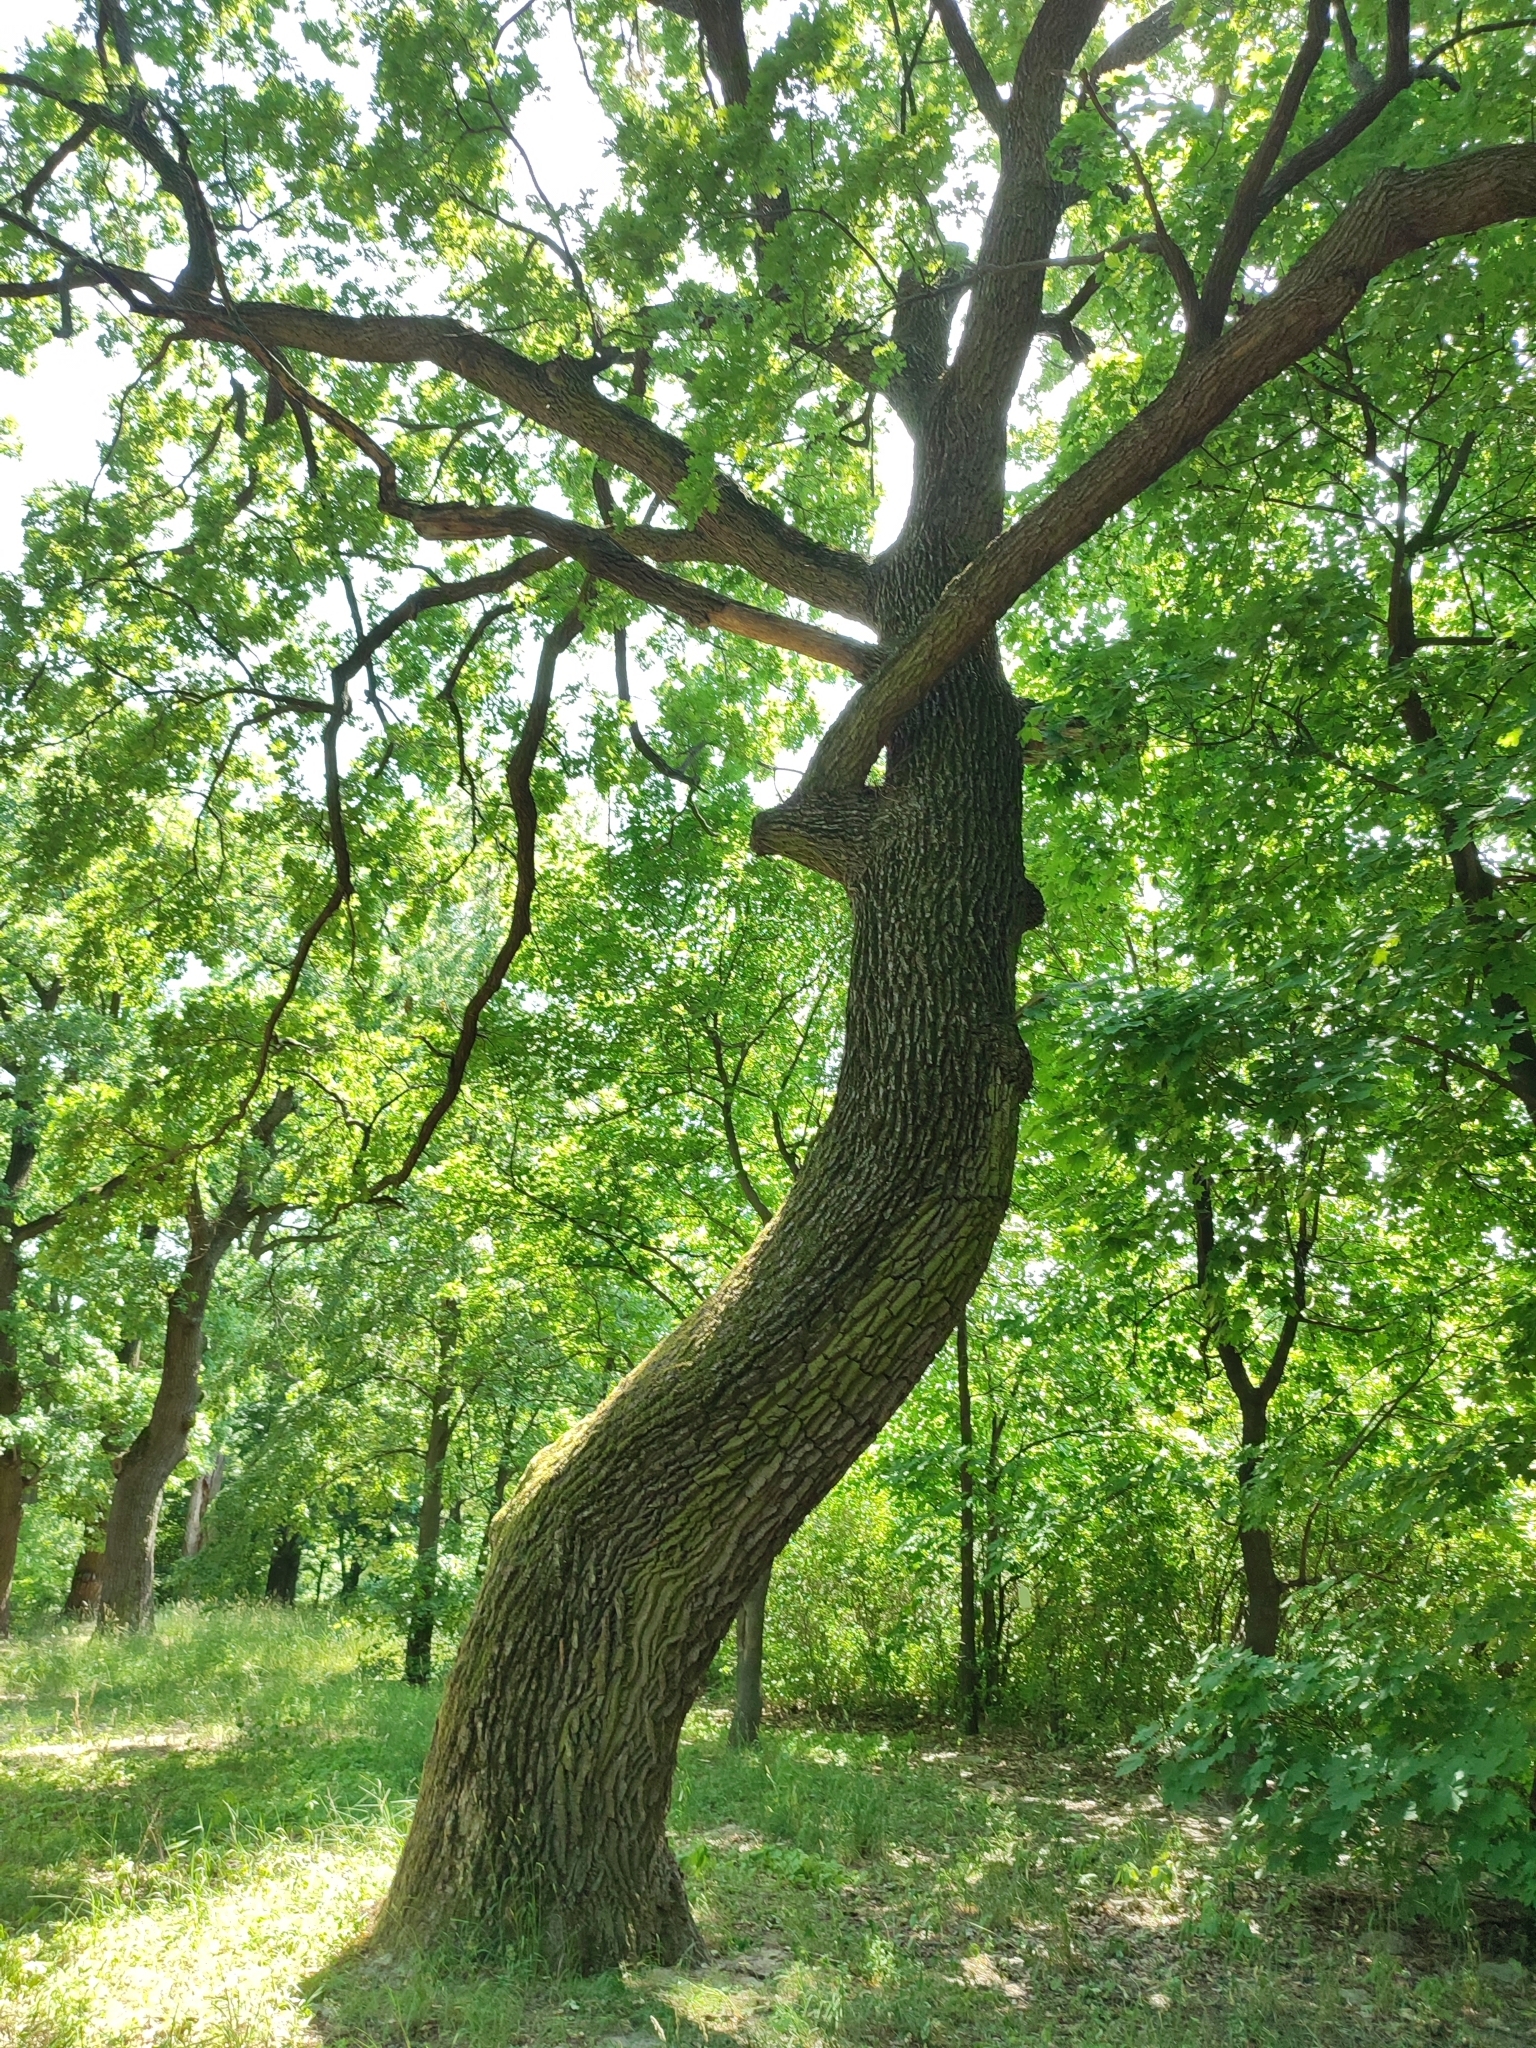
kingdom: Plantae
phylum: Tracheophyta
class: Magnoliopsida
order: Fagales
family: Fagaceae
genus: Quercus
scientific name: Quercus robur
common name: Pedunculate oak
